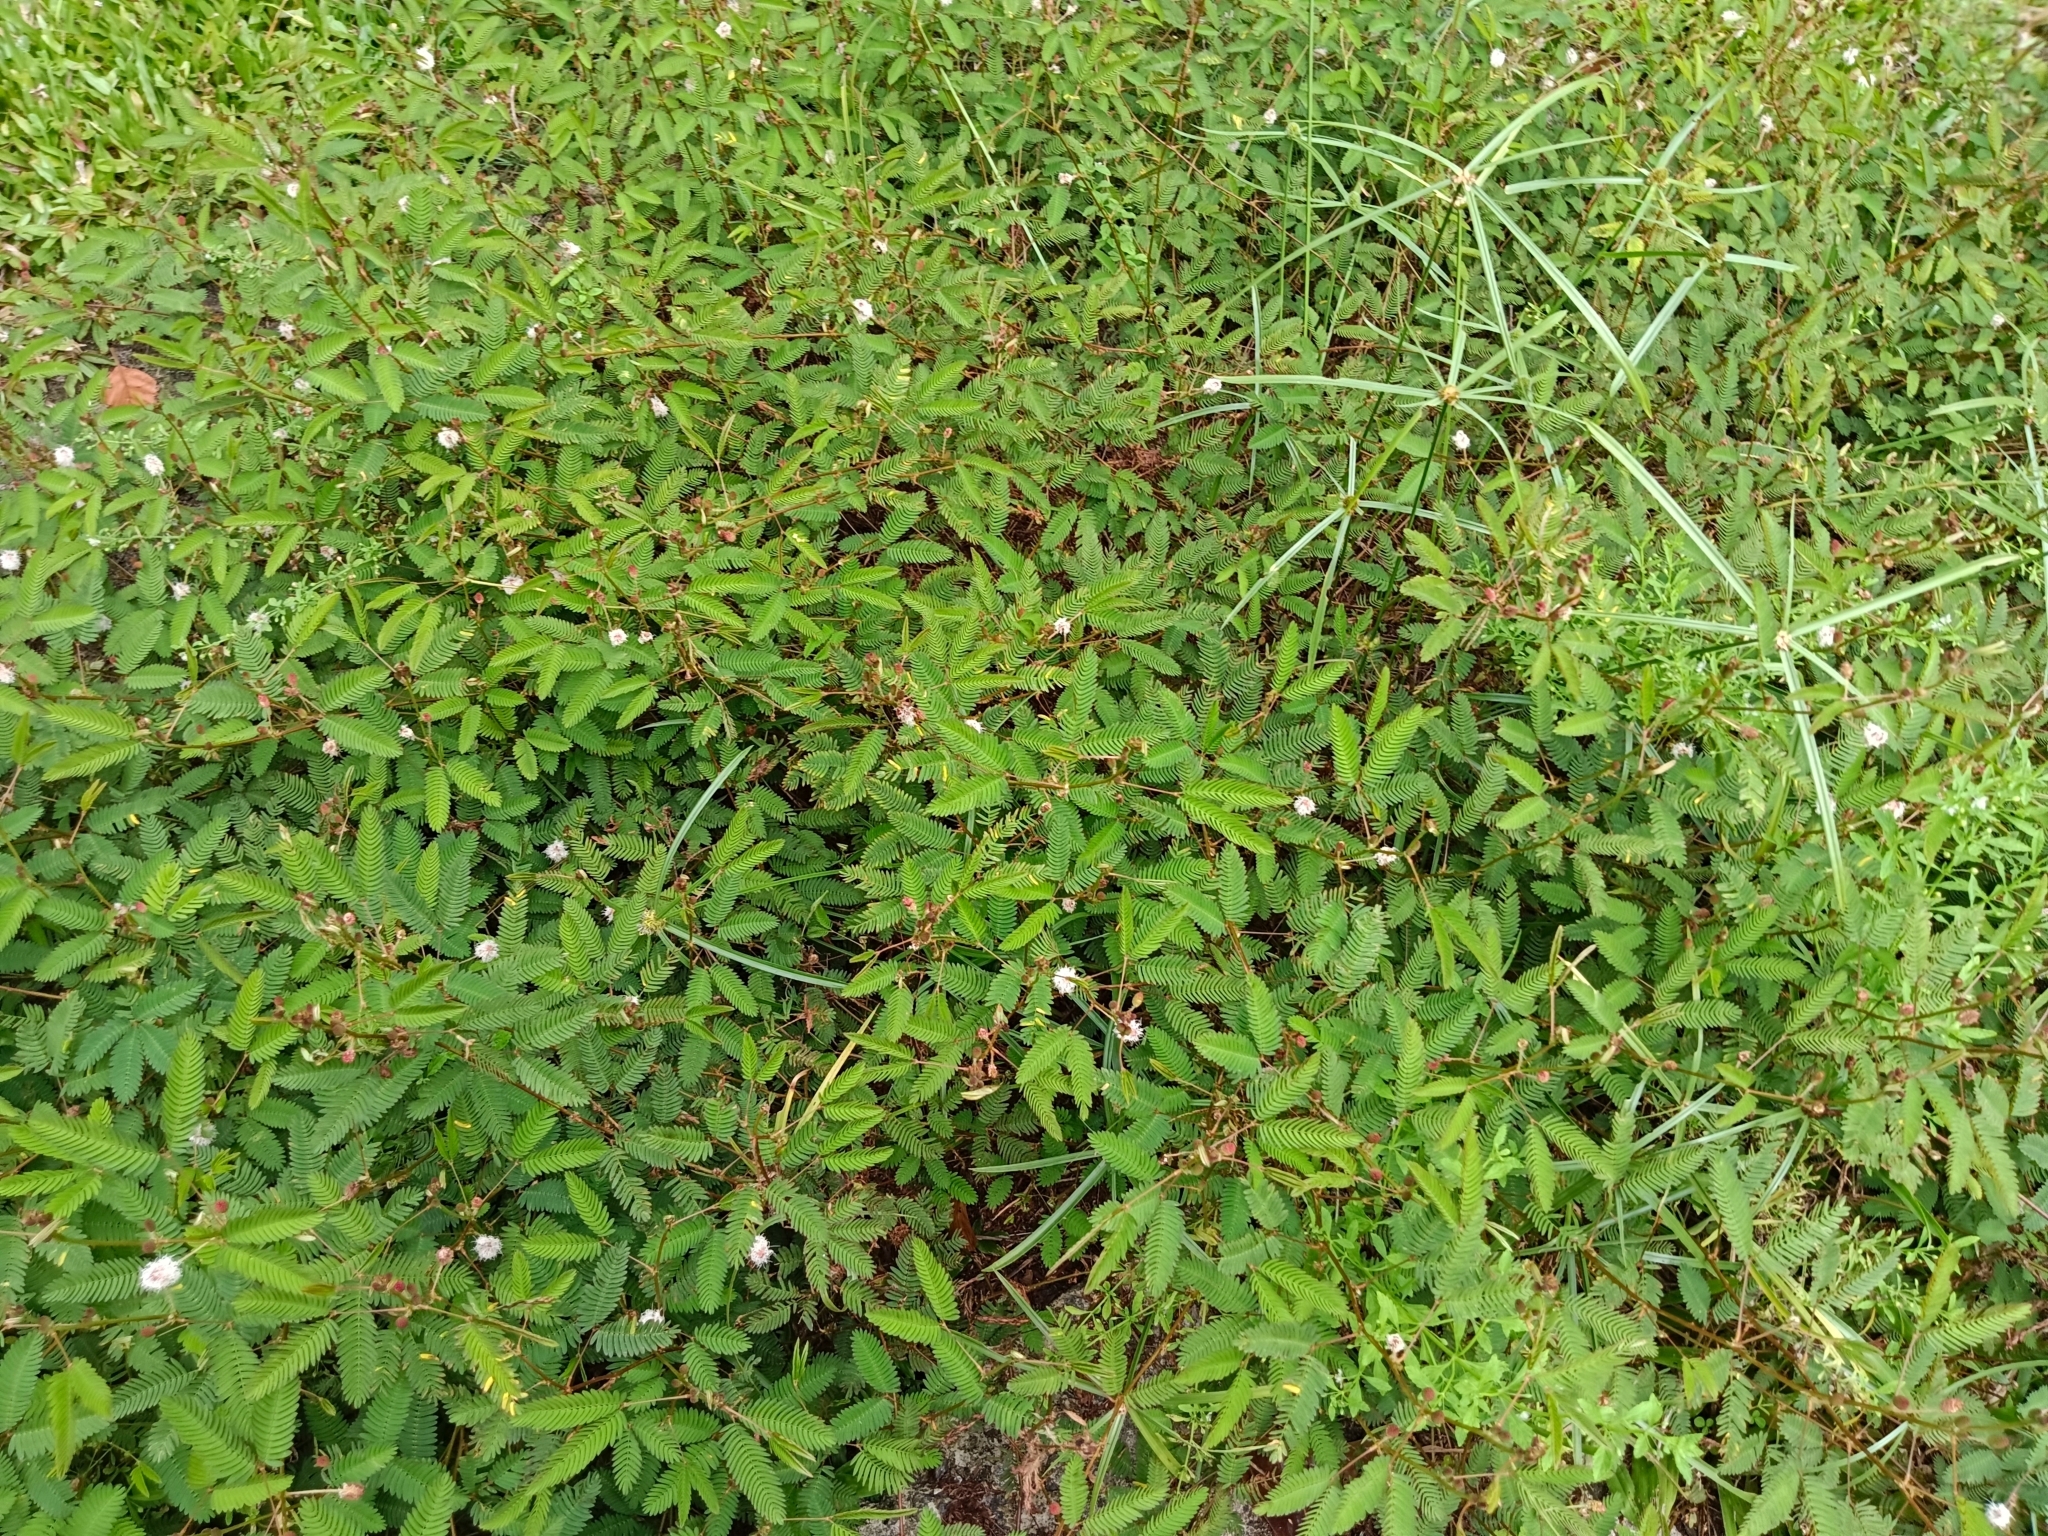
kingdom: Plantae
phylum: Tracheophyta
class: Magnoliopsida
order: Fabales
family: Fabaceae
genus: Mimosa
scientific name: Mimosa pudica
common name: Sensitive plant
